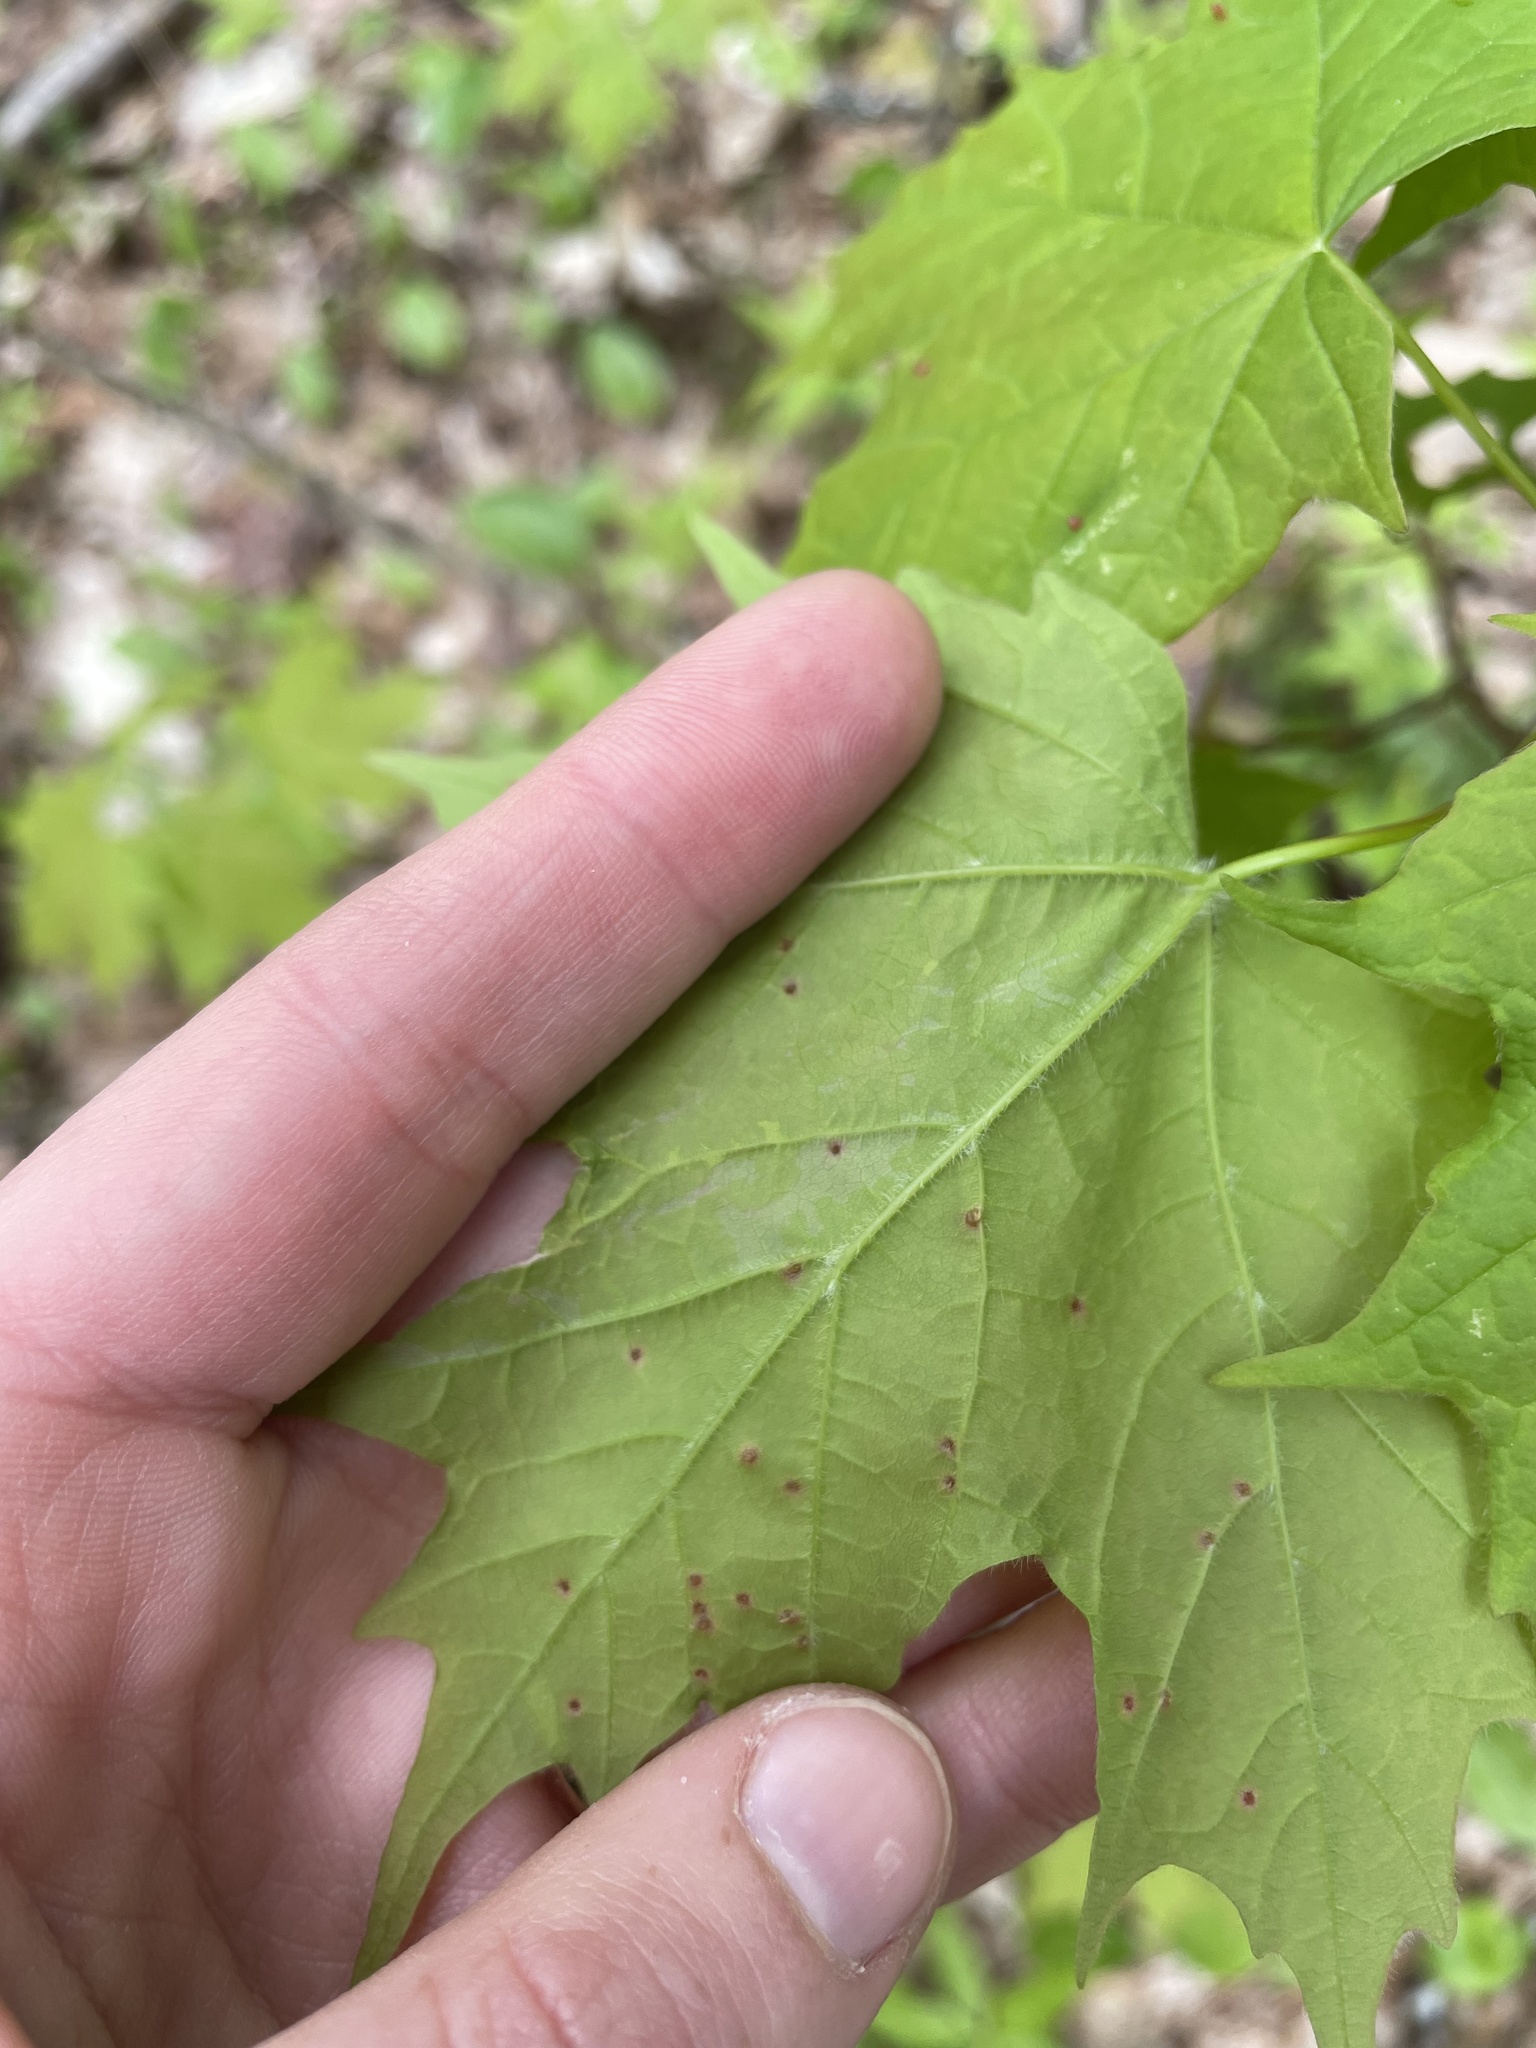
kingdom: Animalia
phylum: Arthropoda
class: Arachnida
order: Trombidiformes
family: Eriophyidae
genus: Vasates
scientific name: Vasates aceriscrumena
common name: Maple spindle gall mite
